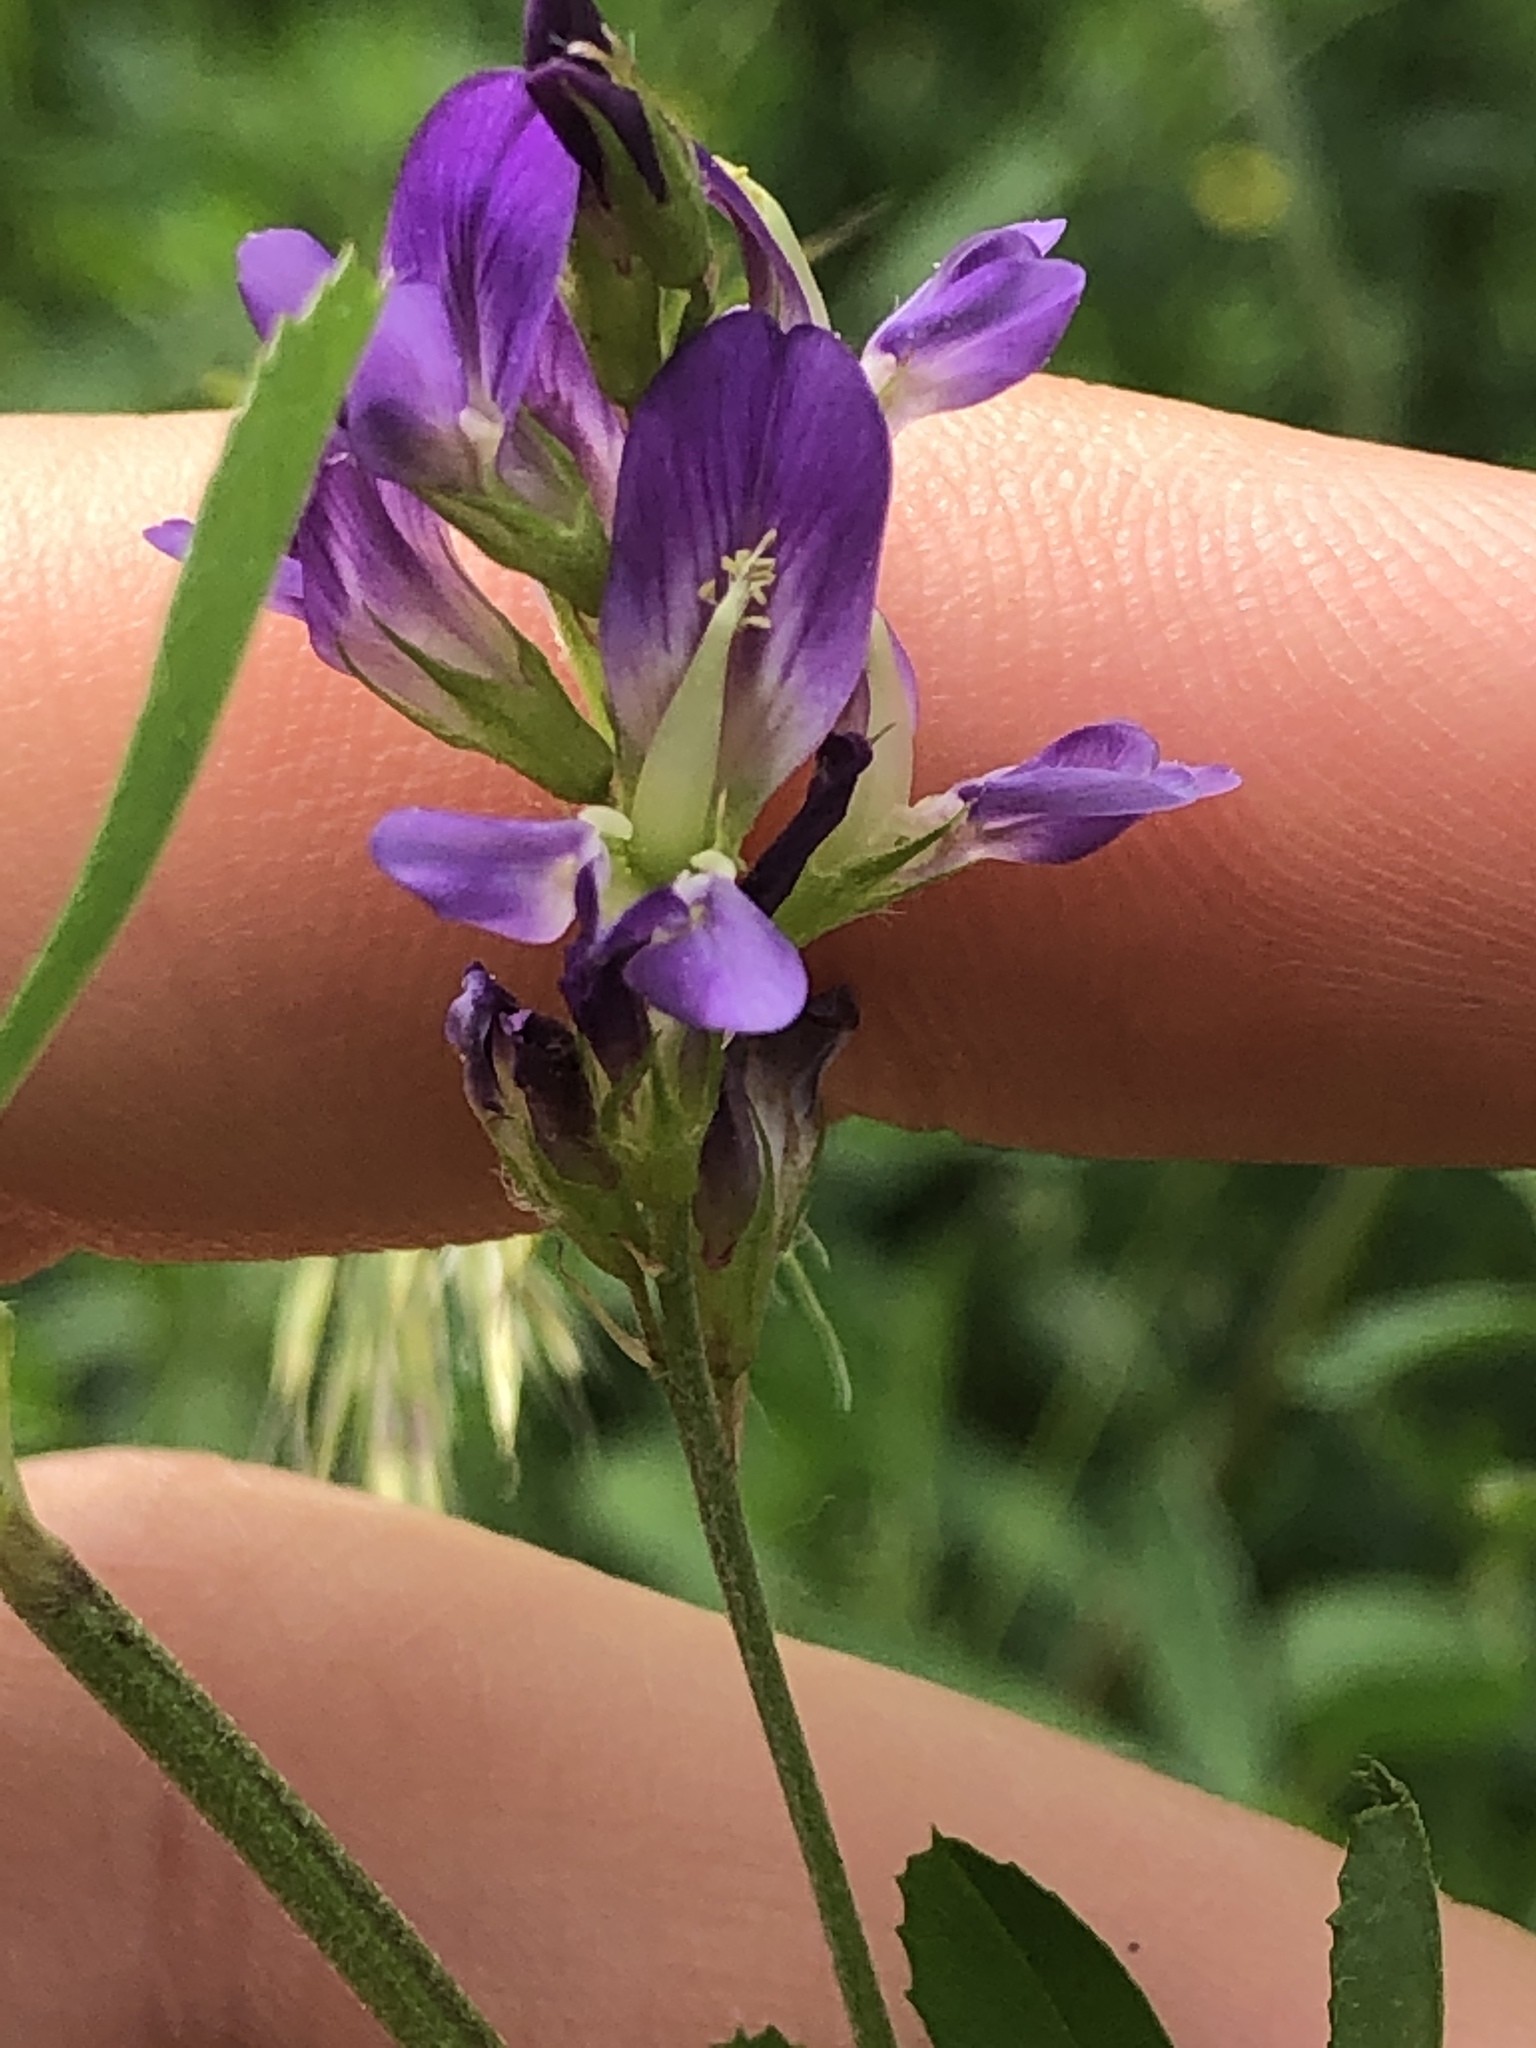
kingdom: Plantae
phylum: Tracheophyta
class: Magnoliopsida
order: Fabales
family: Fabaceae
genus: Medicago
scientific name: Medicago sativa
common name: Alfalfa
